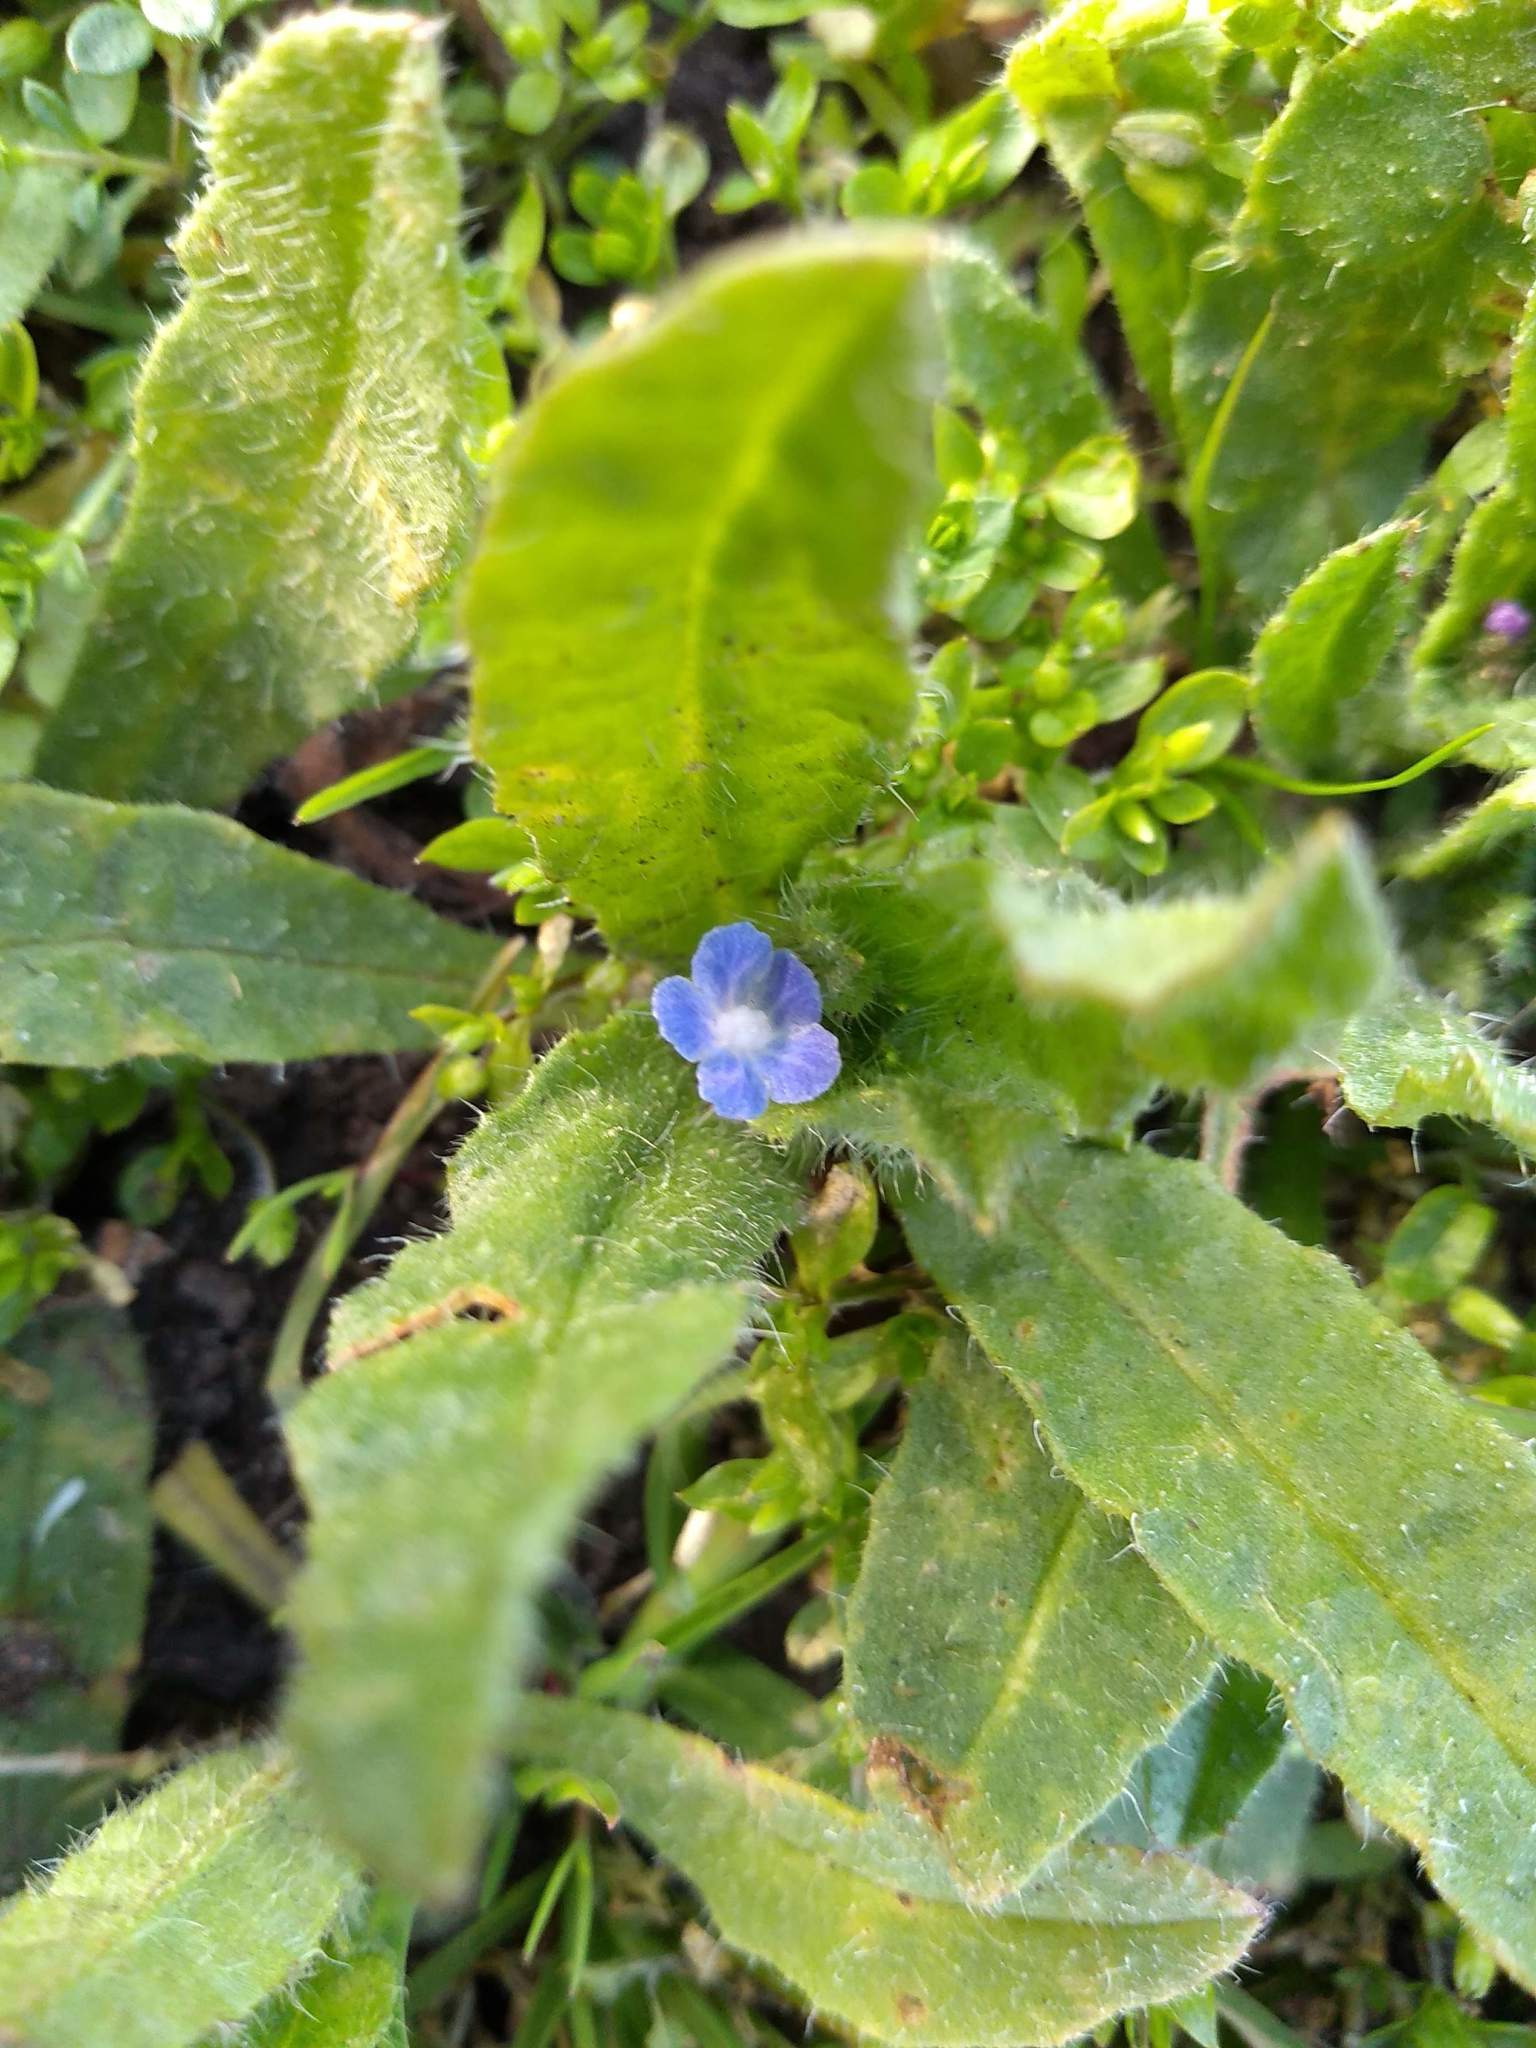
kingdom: Plantae
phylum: Tracheophyta
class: Magnoliopsida
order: Boraginales
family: Boraginaceae
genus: Lycopsis
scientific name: Lycopsis arvensis
